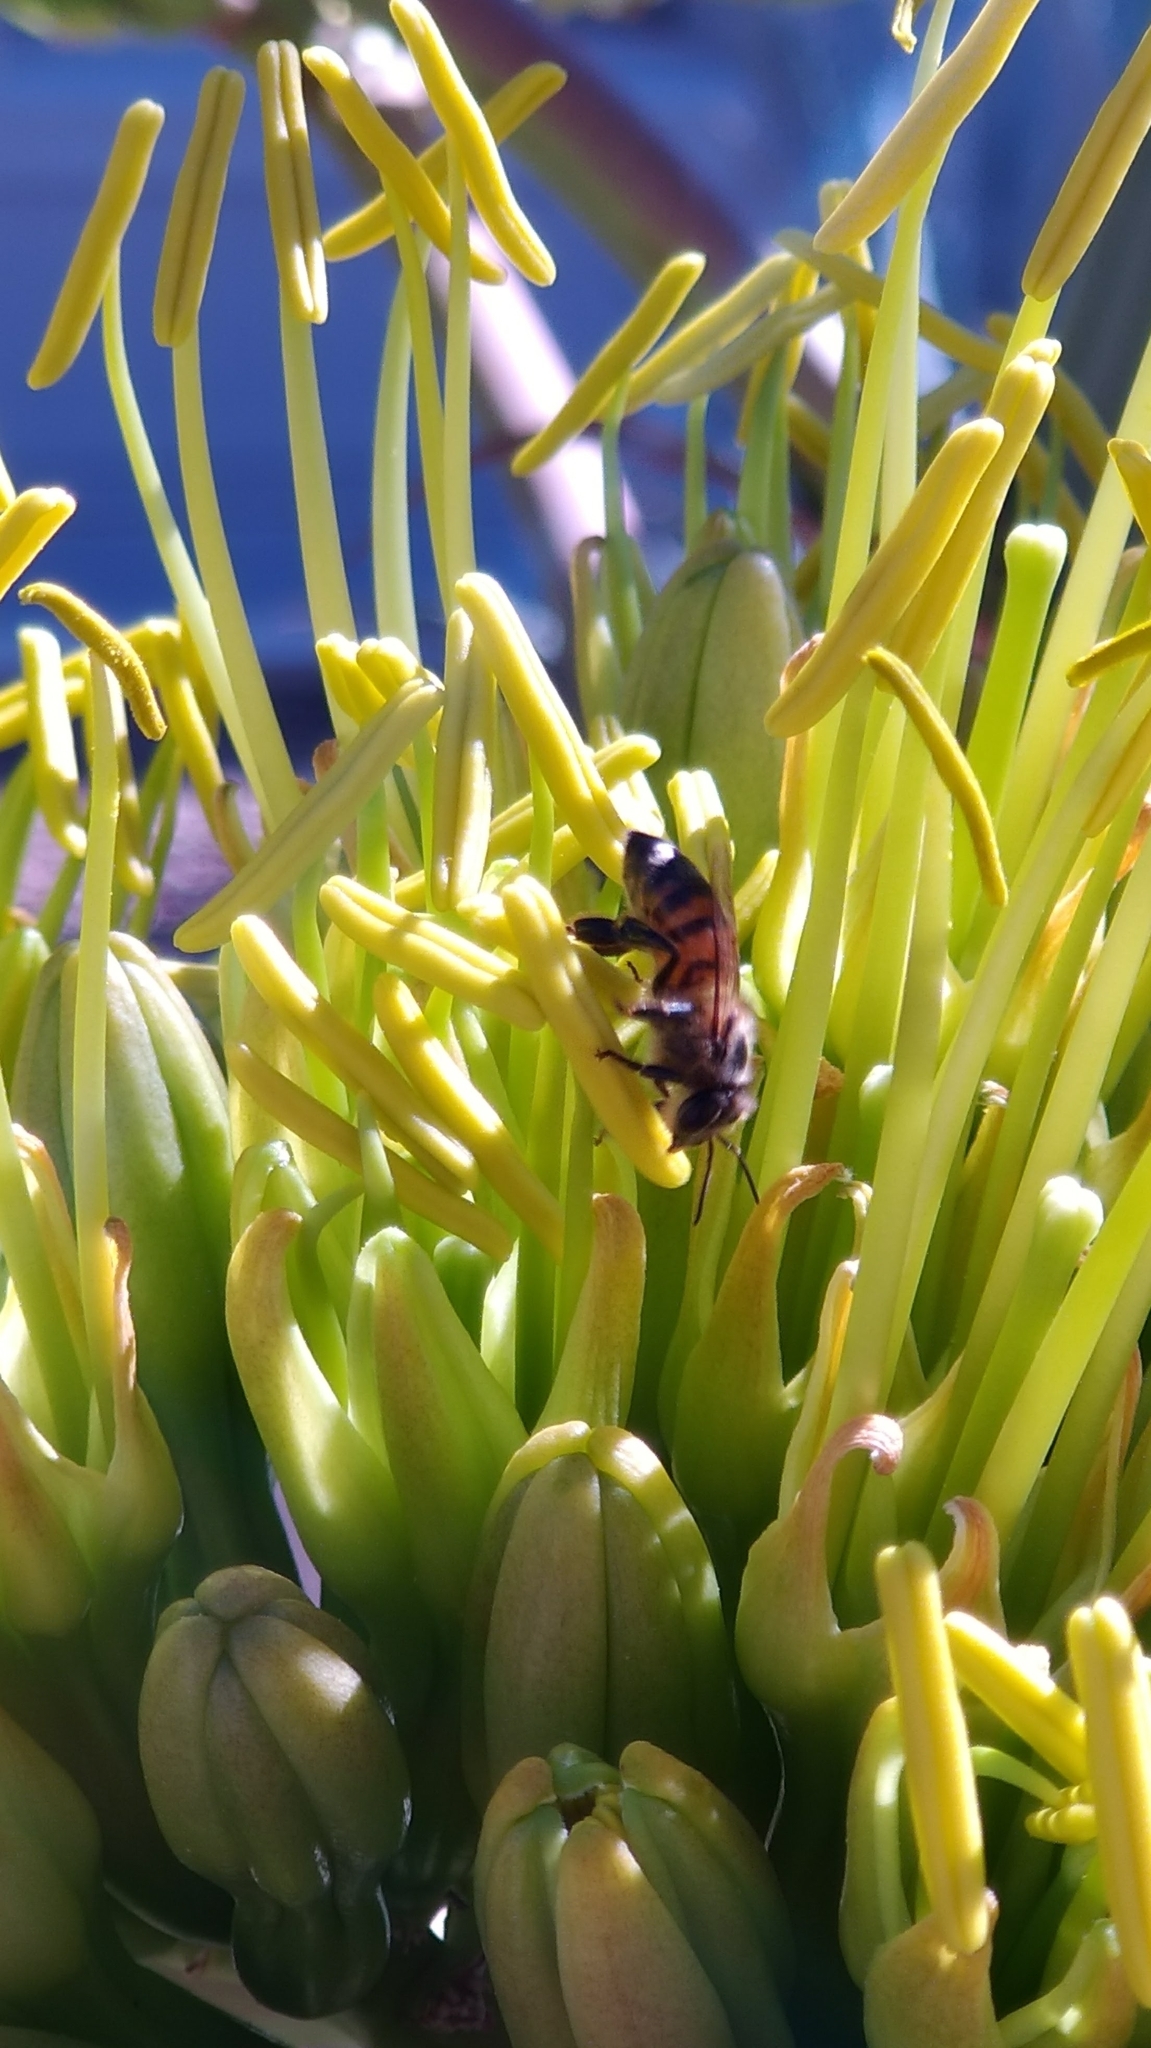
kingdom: Animalia
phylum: Arthropoda
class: Insecta
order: Hymenoptera
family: Apidae
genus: Apis
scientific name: Apis mellifera
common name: Honey bee
